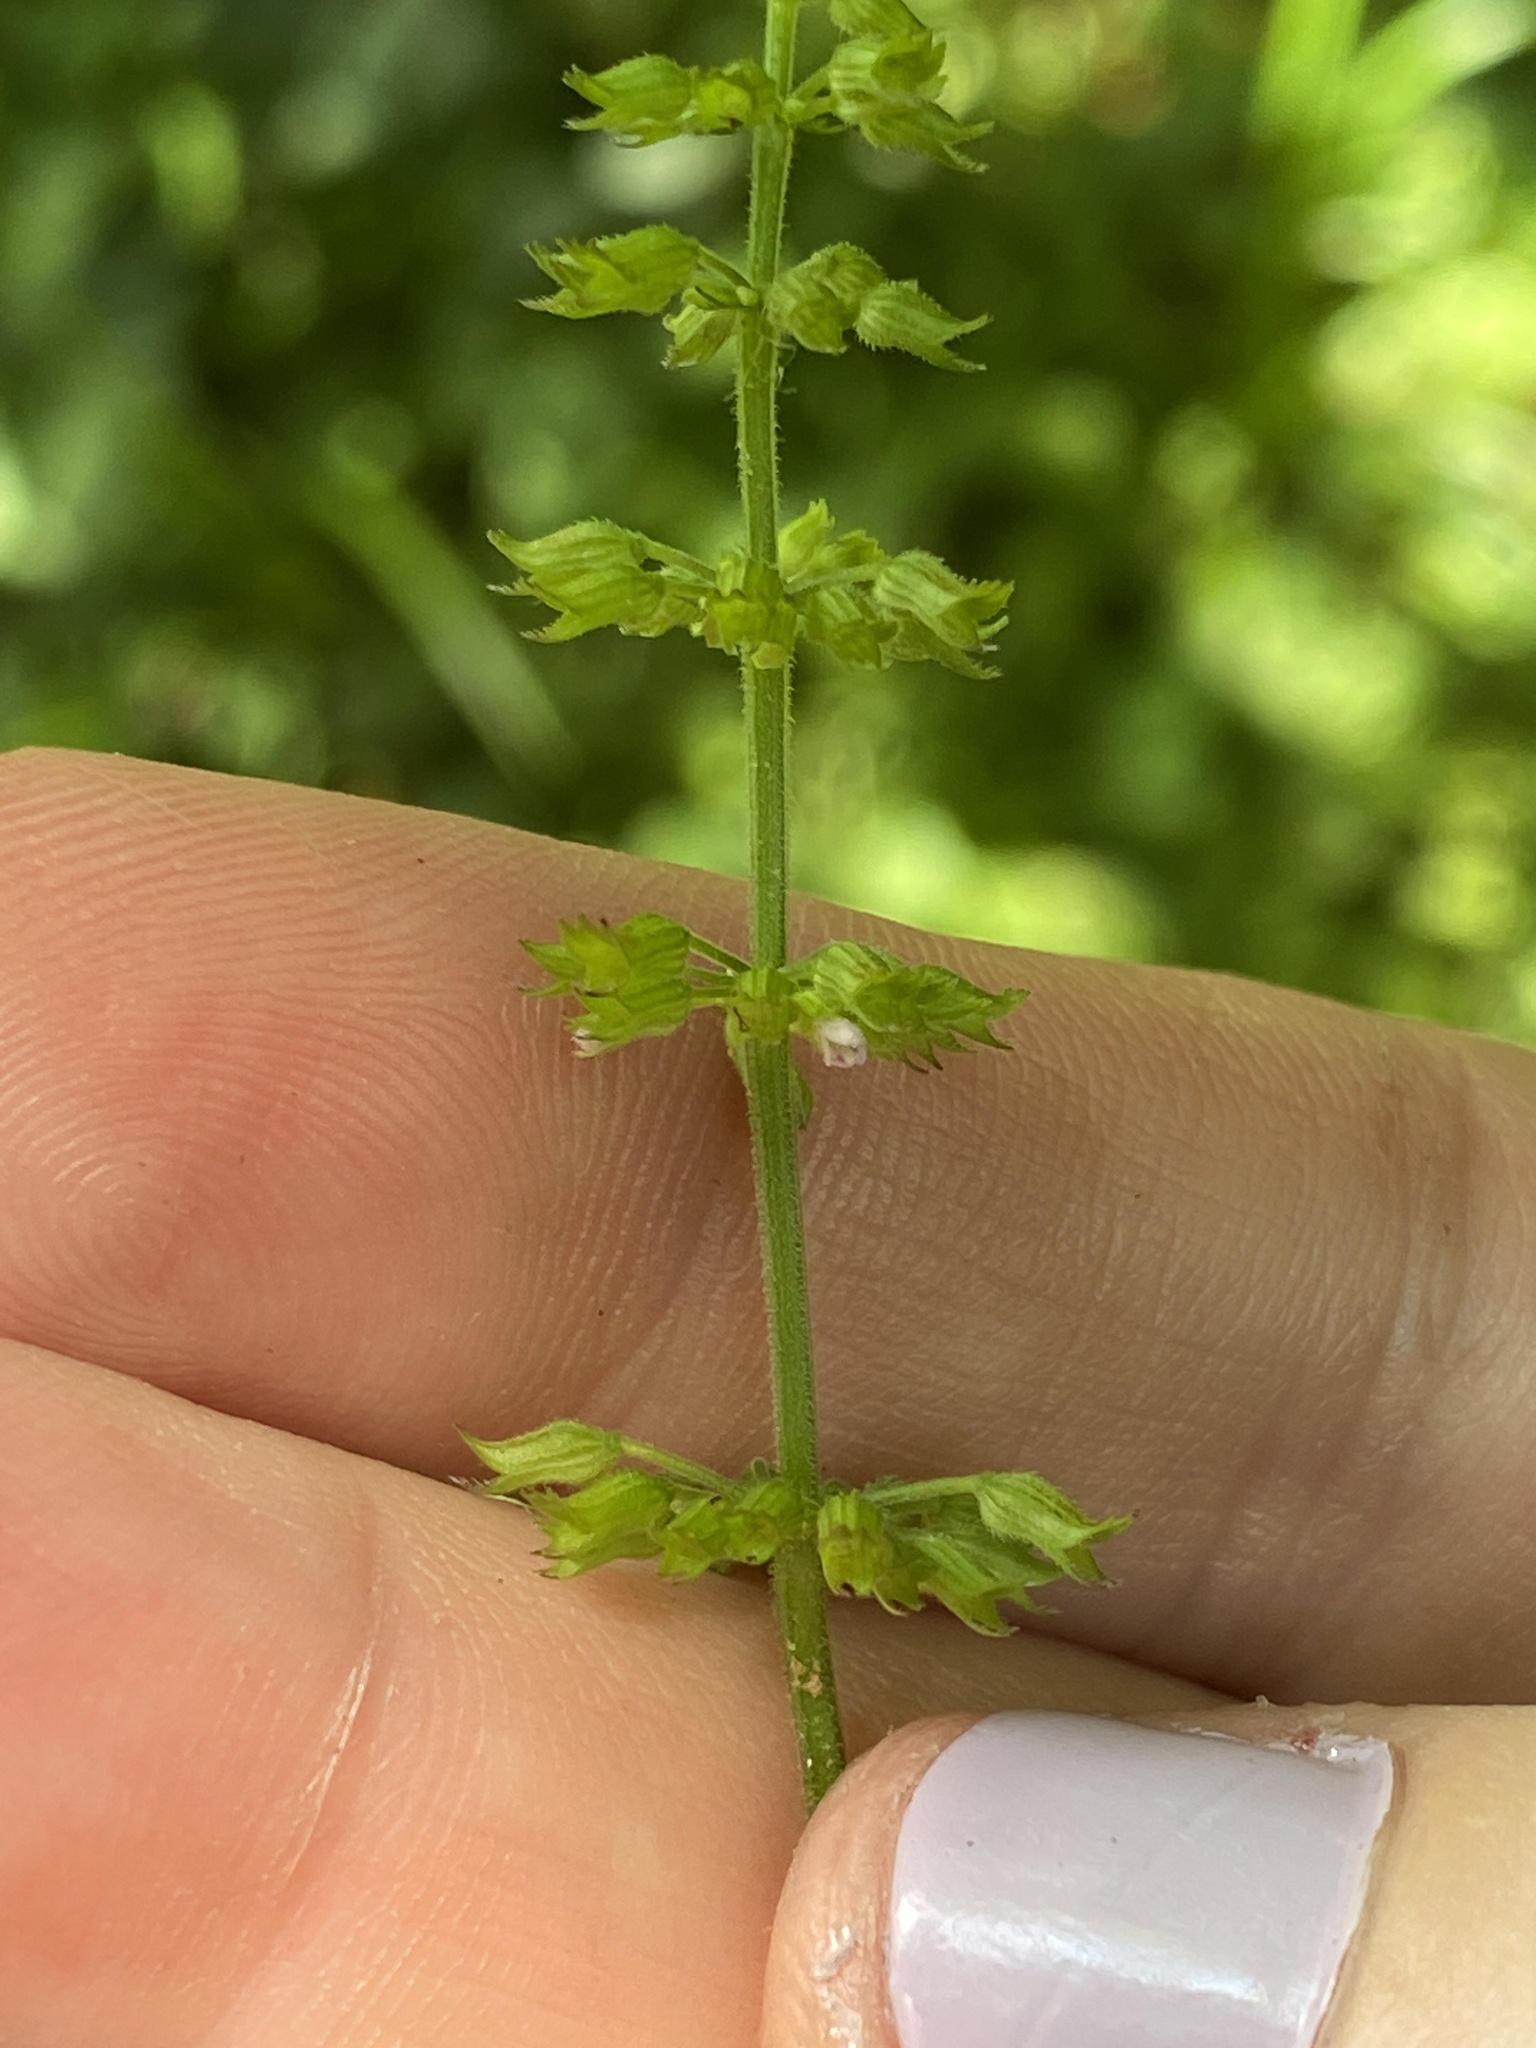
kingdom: Plantae
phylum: Tracheophyta
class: Magnoliopsida
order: Lamiales
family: Lamiaceae
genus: Clinopodium
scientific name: Clinopodium gracile
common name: Slender wild basil
